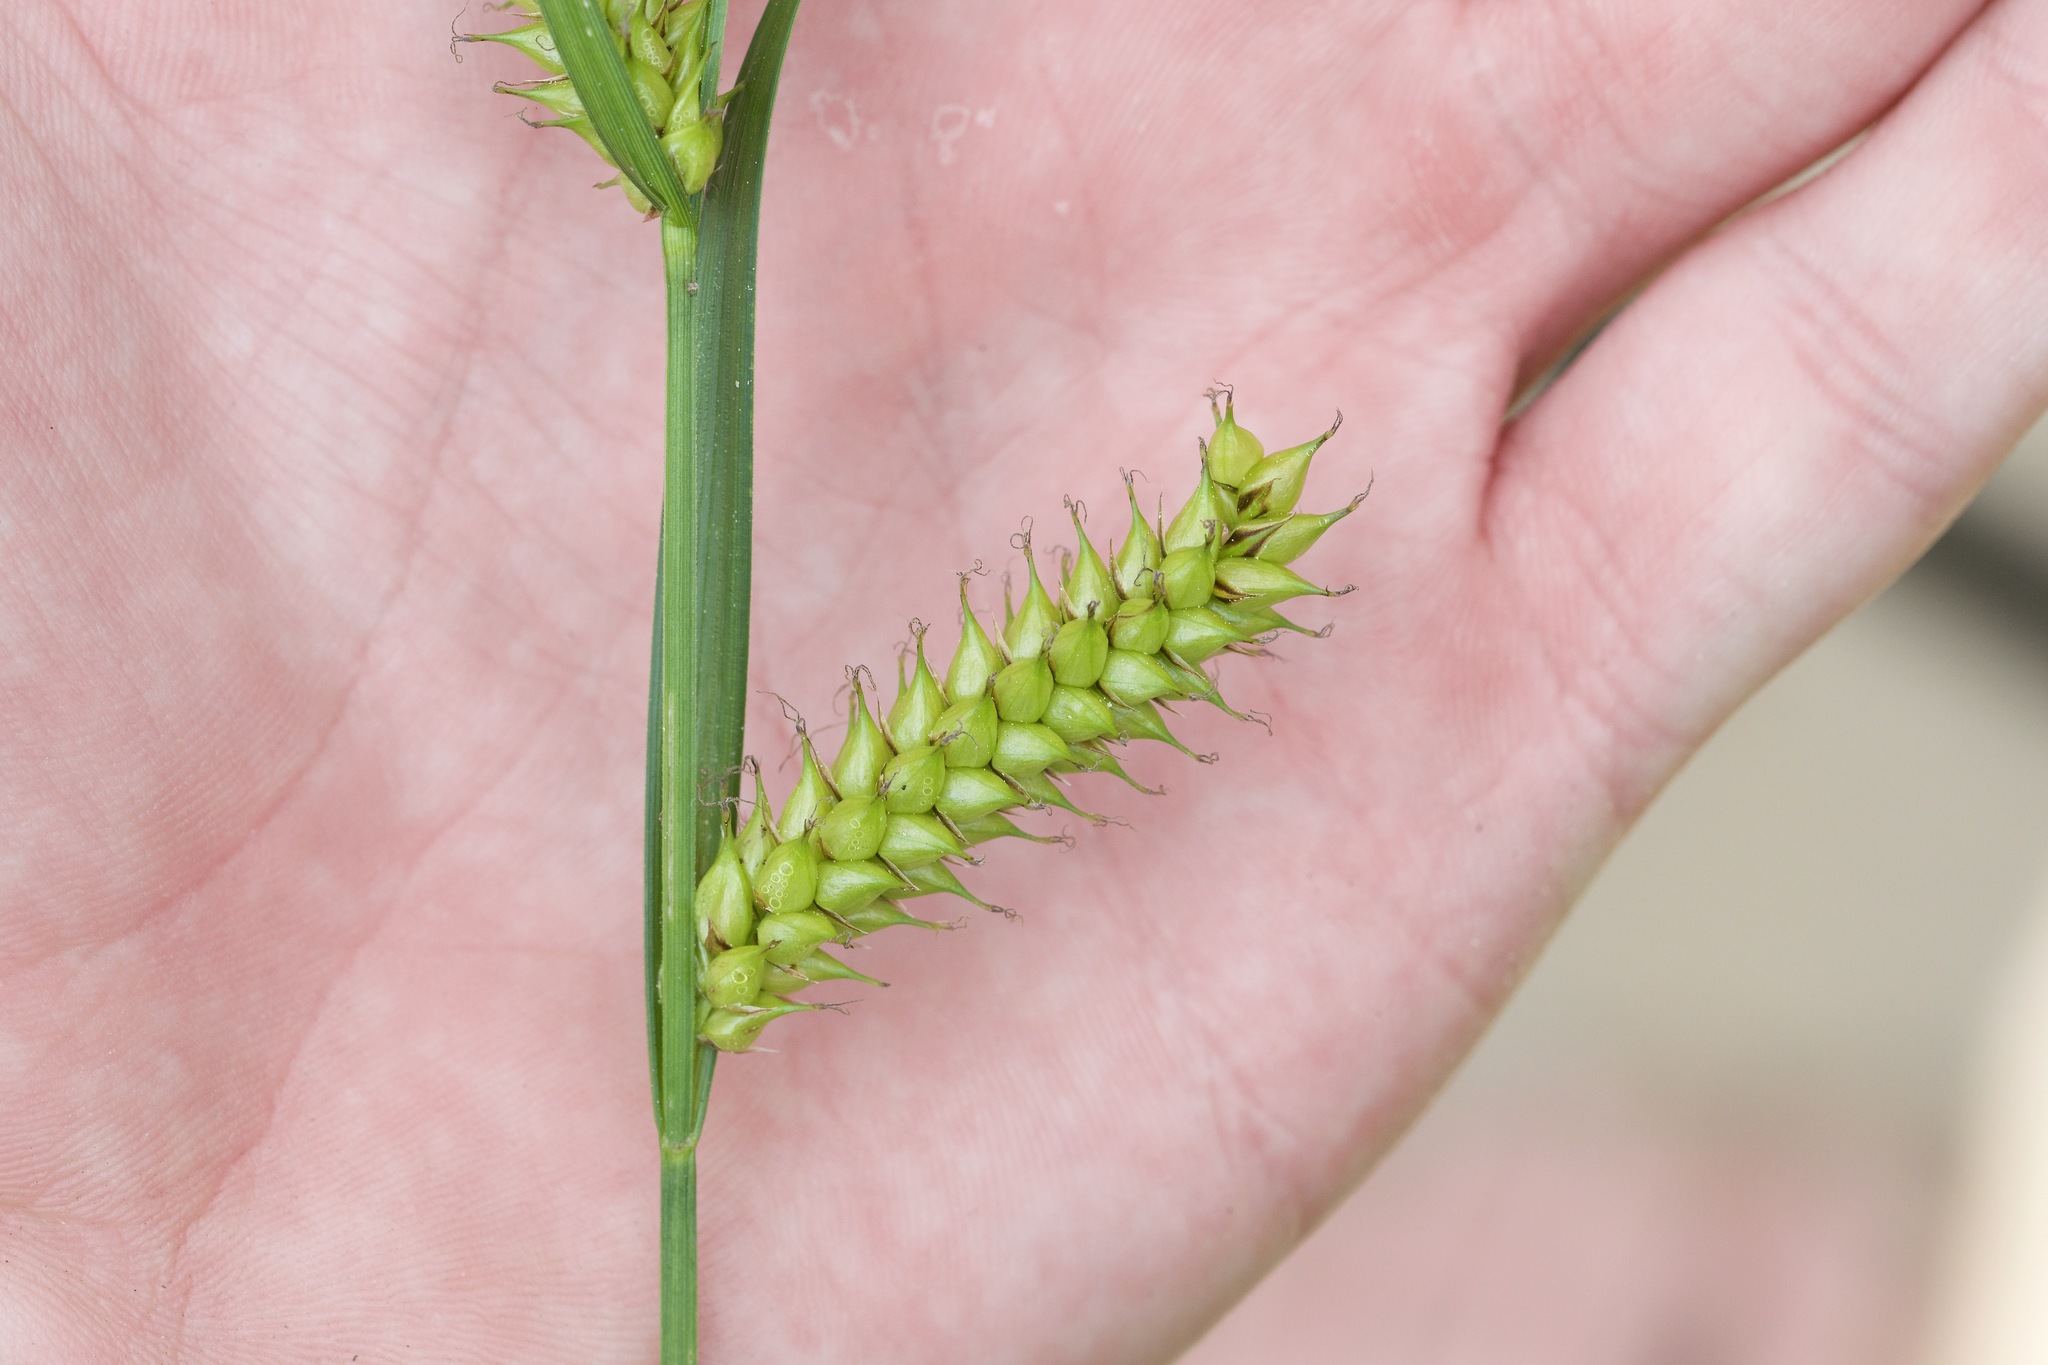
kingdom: Plantae
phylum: Tracheophyta
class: Liliopsida
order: Poales
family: Cyperaceae
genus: Carex
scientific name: Carex vesicaria
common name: Bladder-sedge
